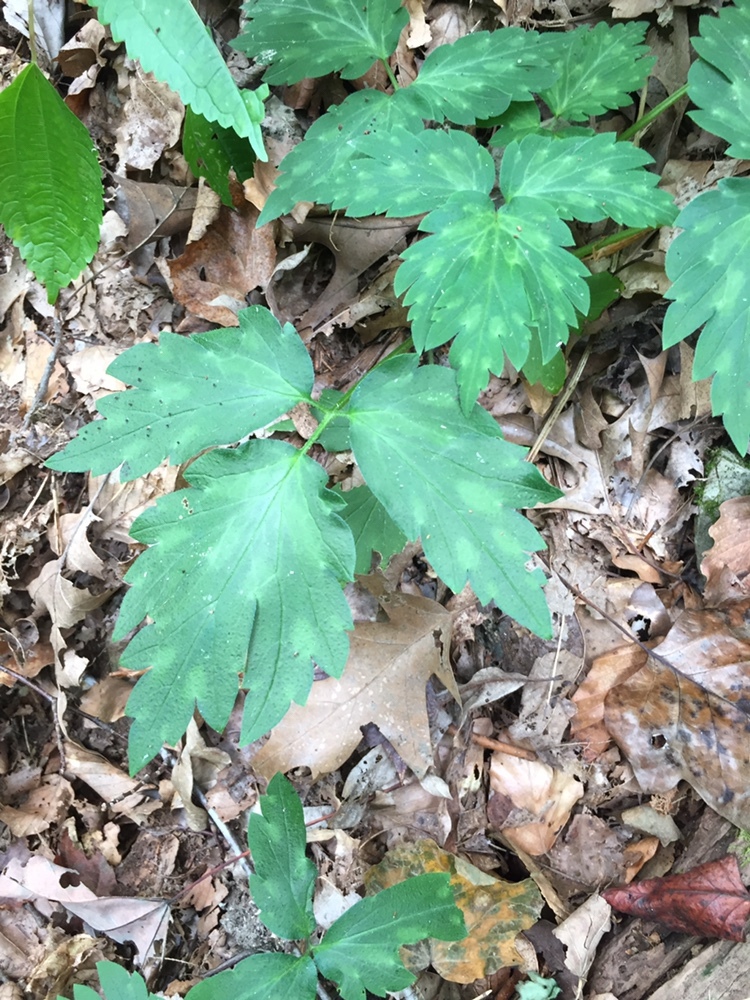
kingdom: Plantae
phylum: Tracheophyta
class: Magnoliopsida
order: Boraginales
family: Hydrophyllaceae
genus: Phacelia
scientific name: Phacelia bipinnatifida
